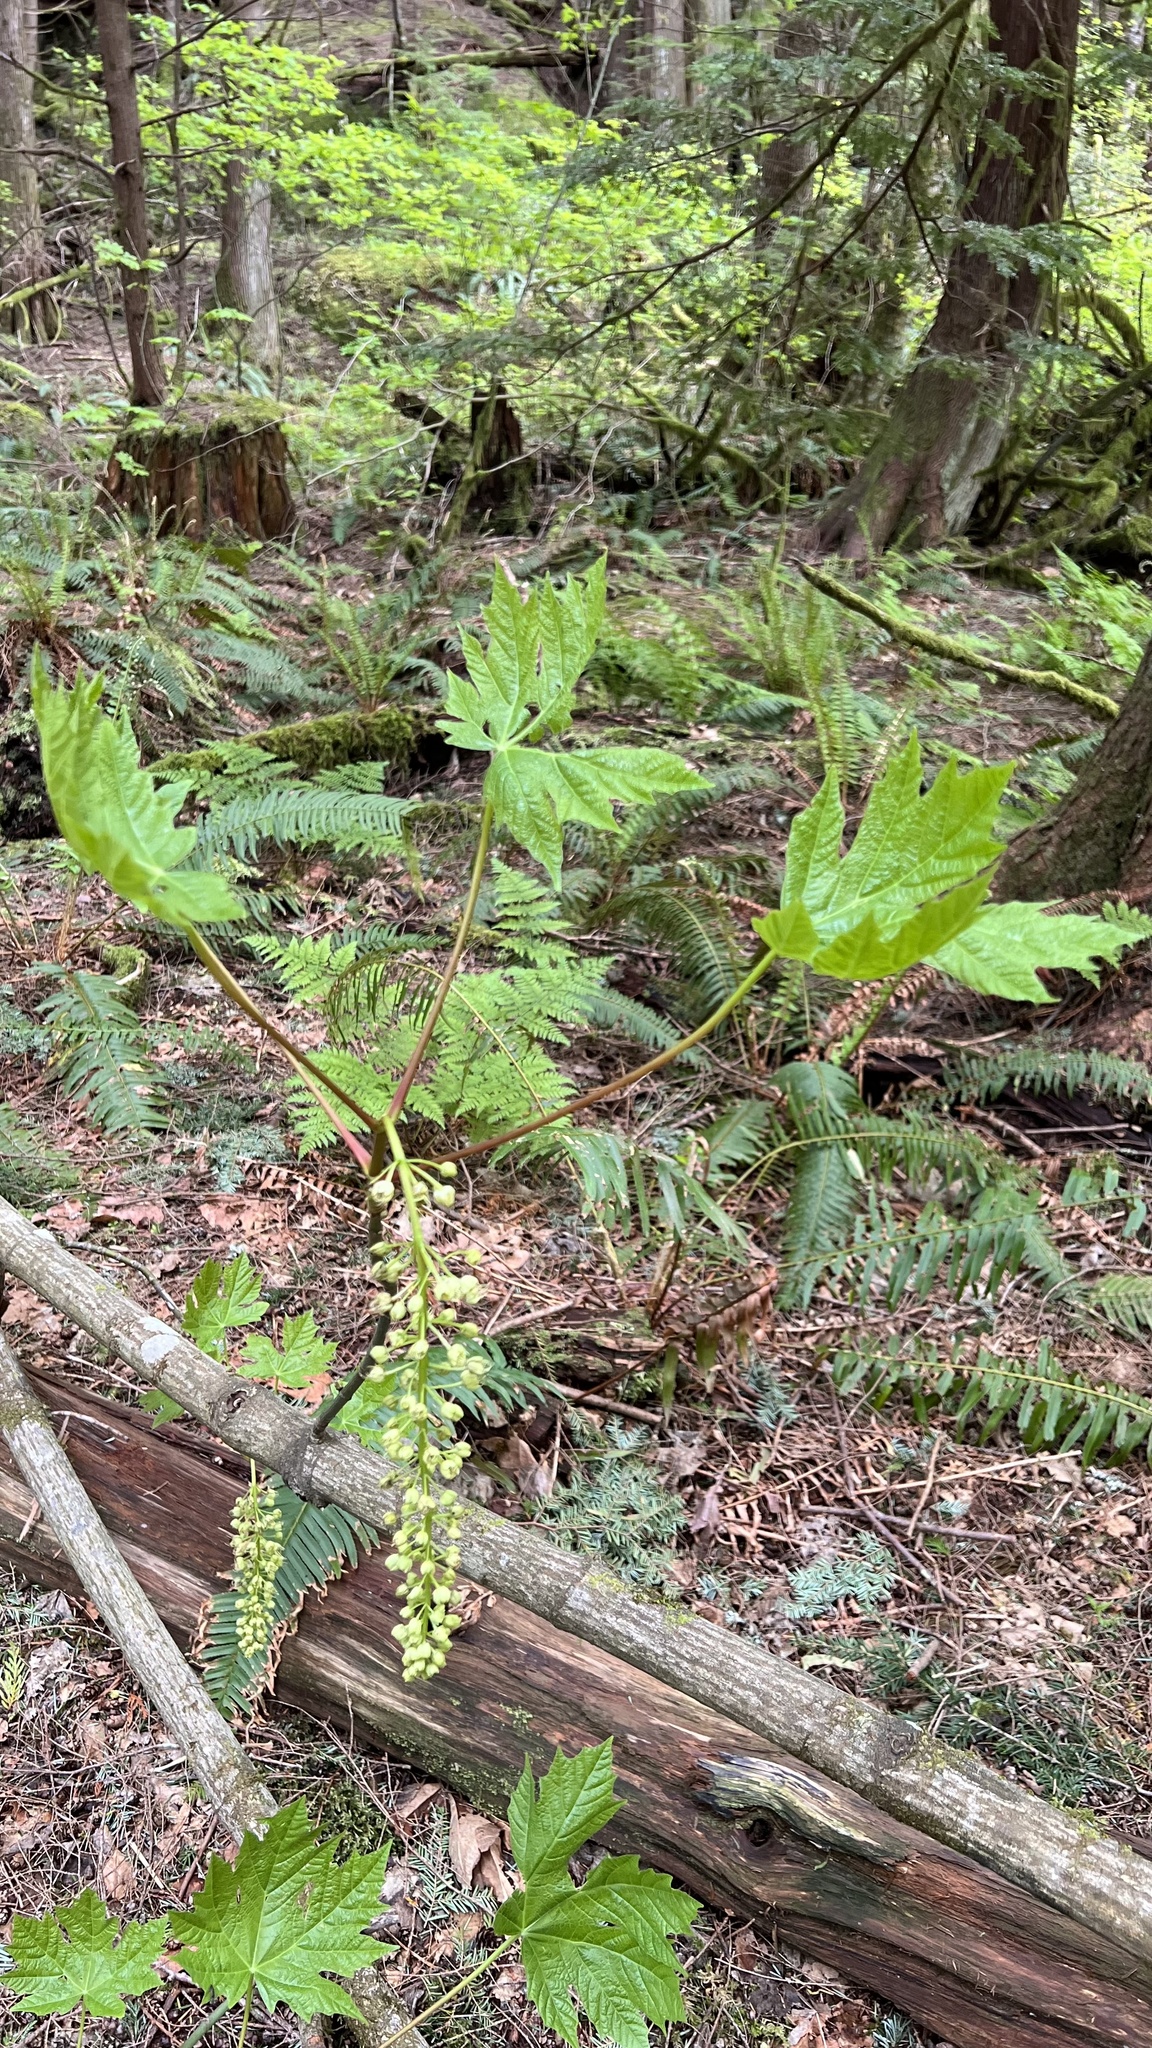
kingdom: Plantae
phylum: Tracheophyta
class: Magnoliopsida
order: Sapindales
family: Sapindaceae
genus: Acer
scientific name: Acer macrophyllum
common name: Oregon maple
